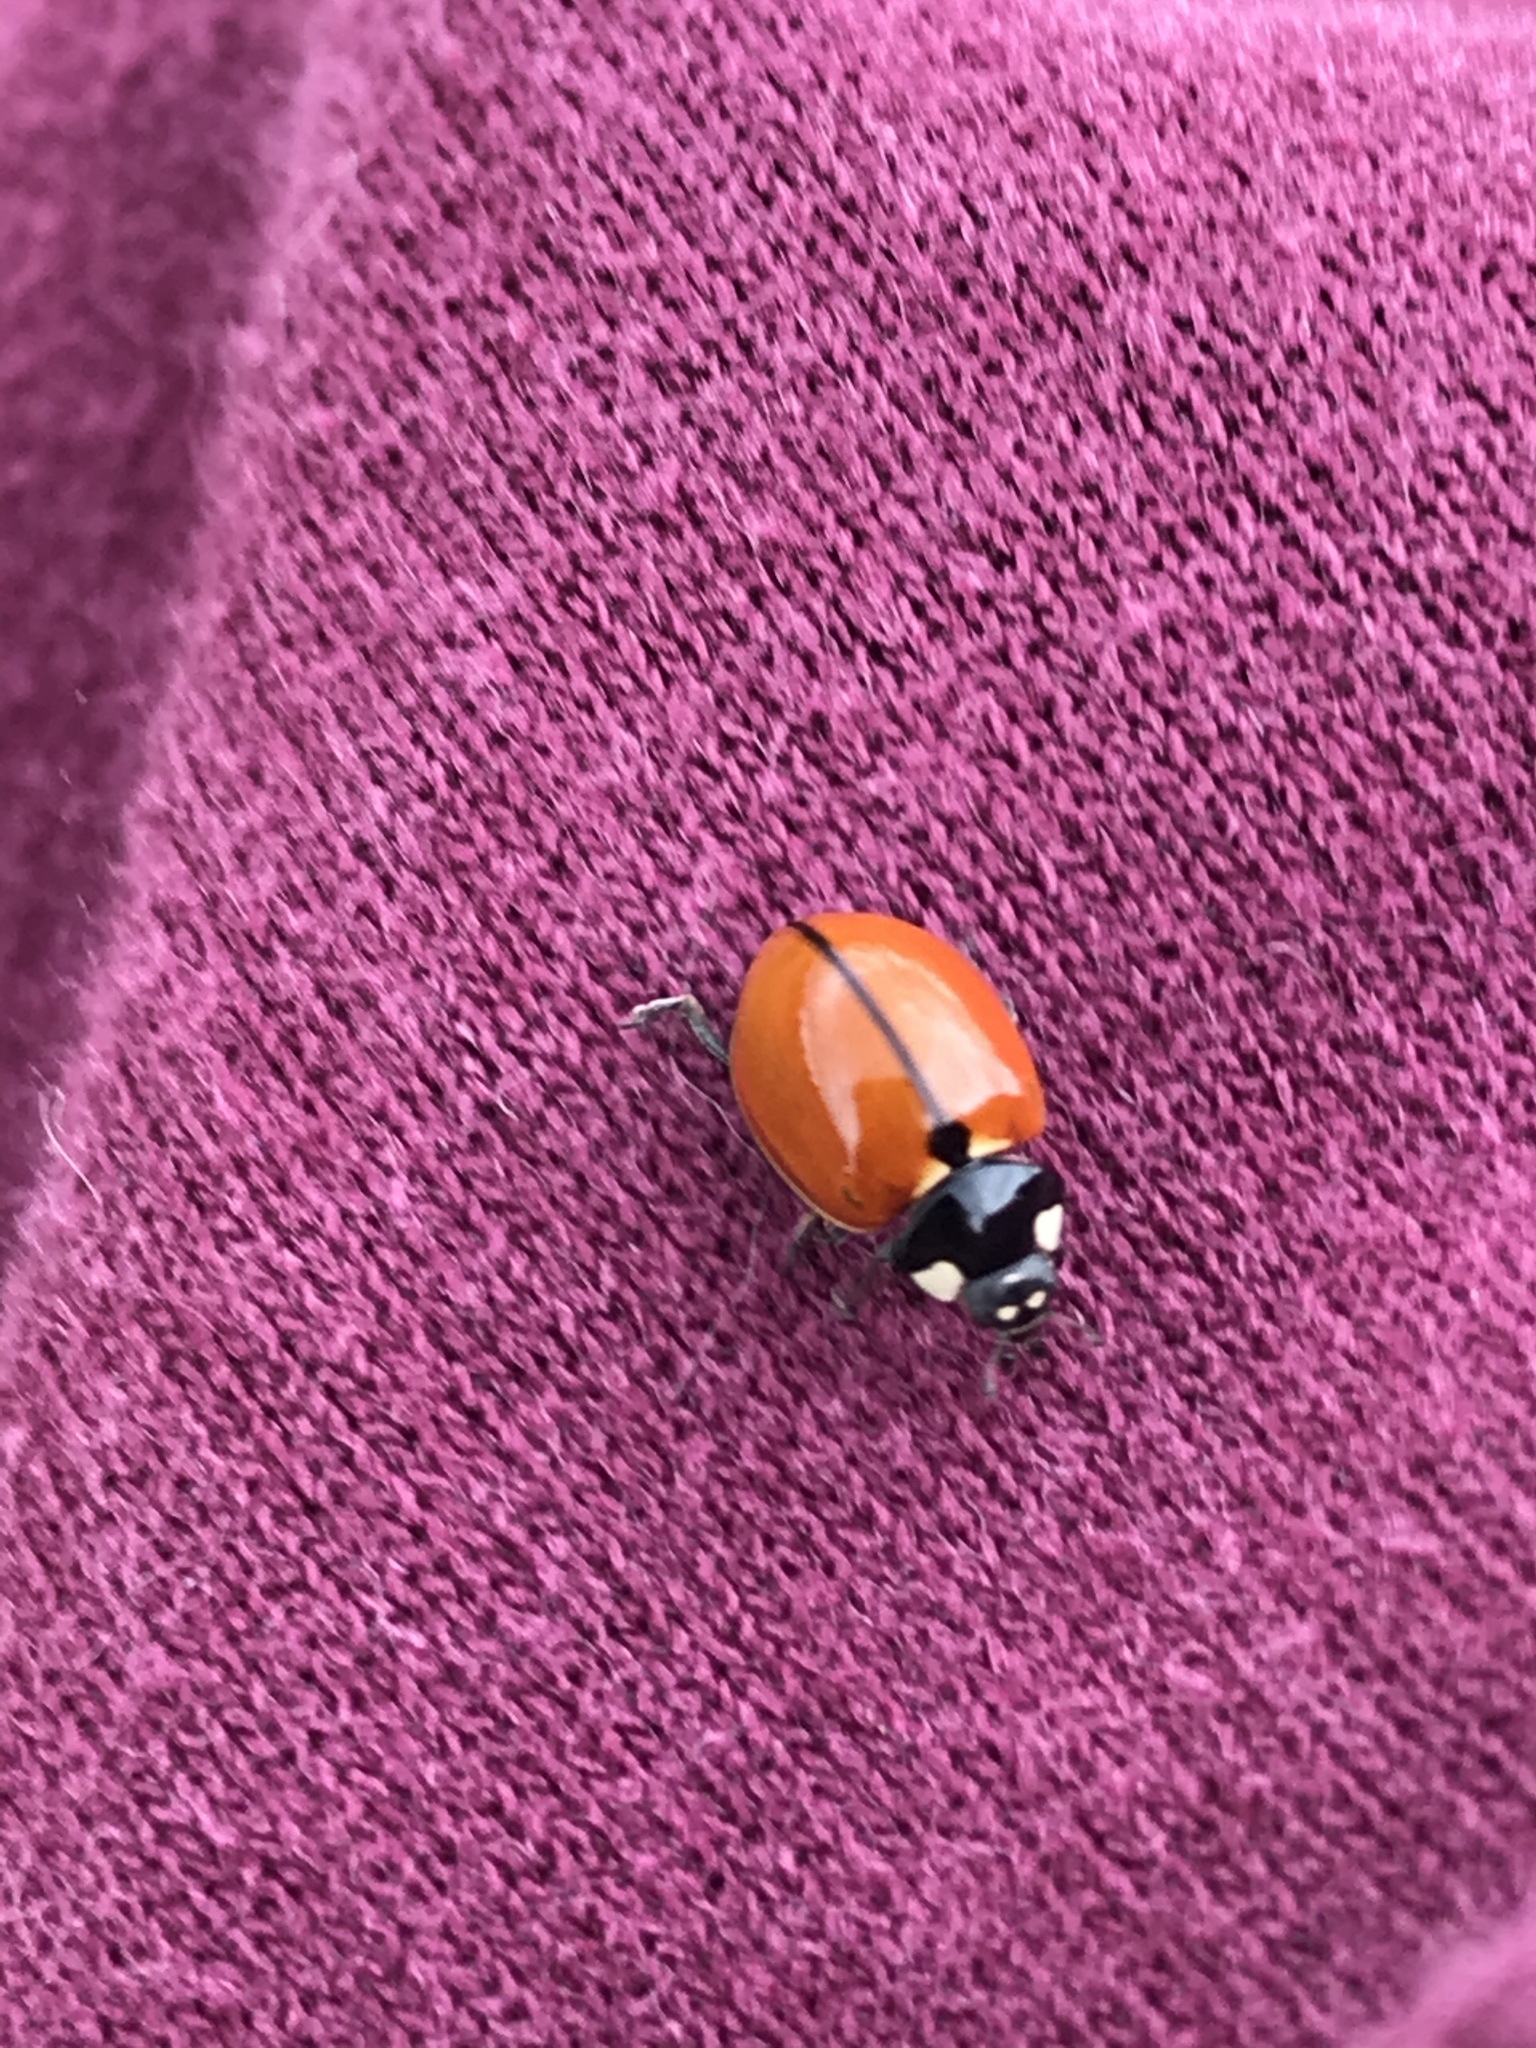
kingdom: Animalia
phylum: Arthropoda
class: Insecta
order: Coleoptera
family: Coccinellidae
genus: Coccinella
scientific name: Coccinella californica
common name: Lady beetle
